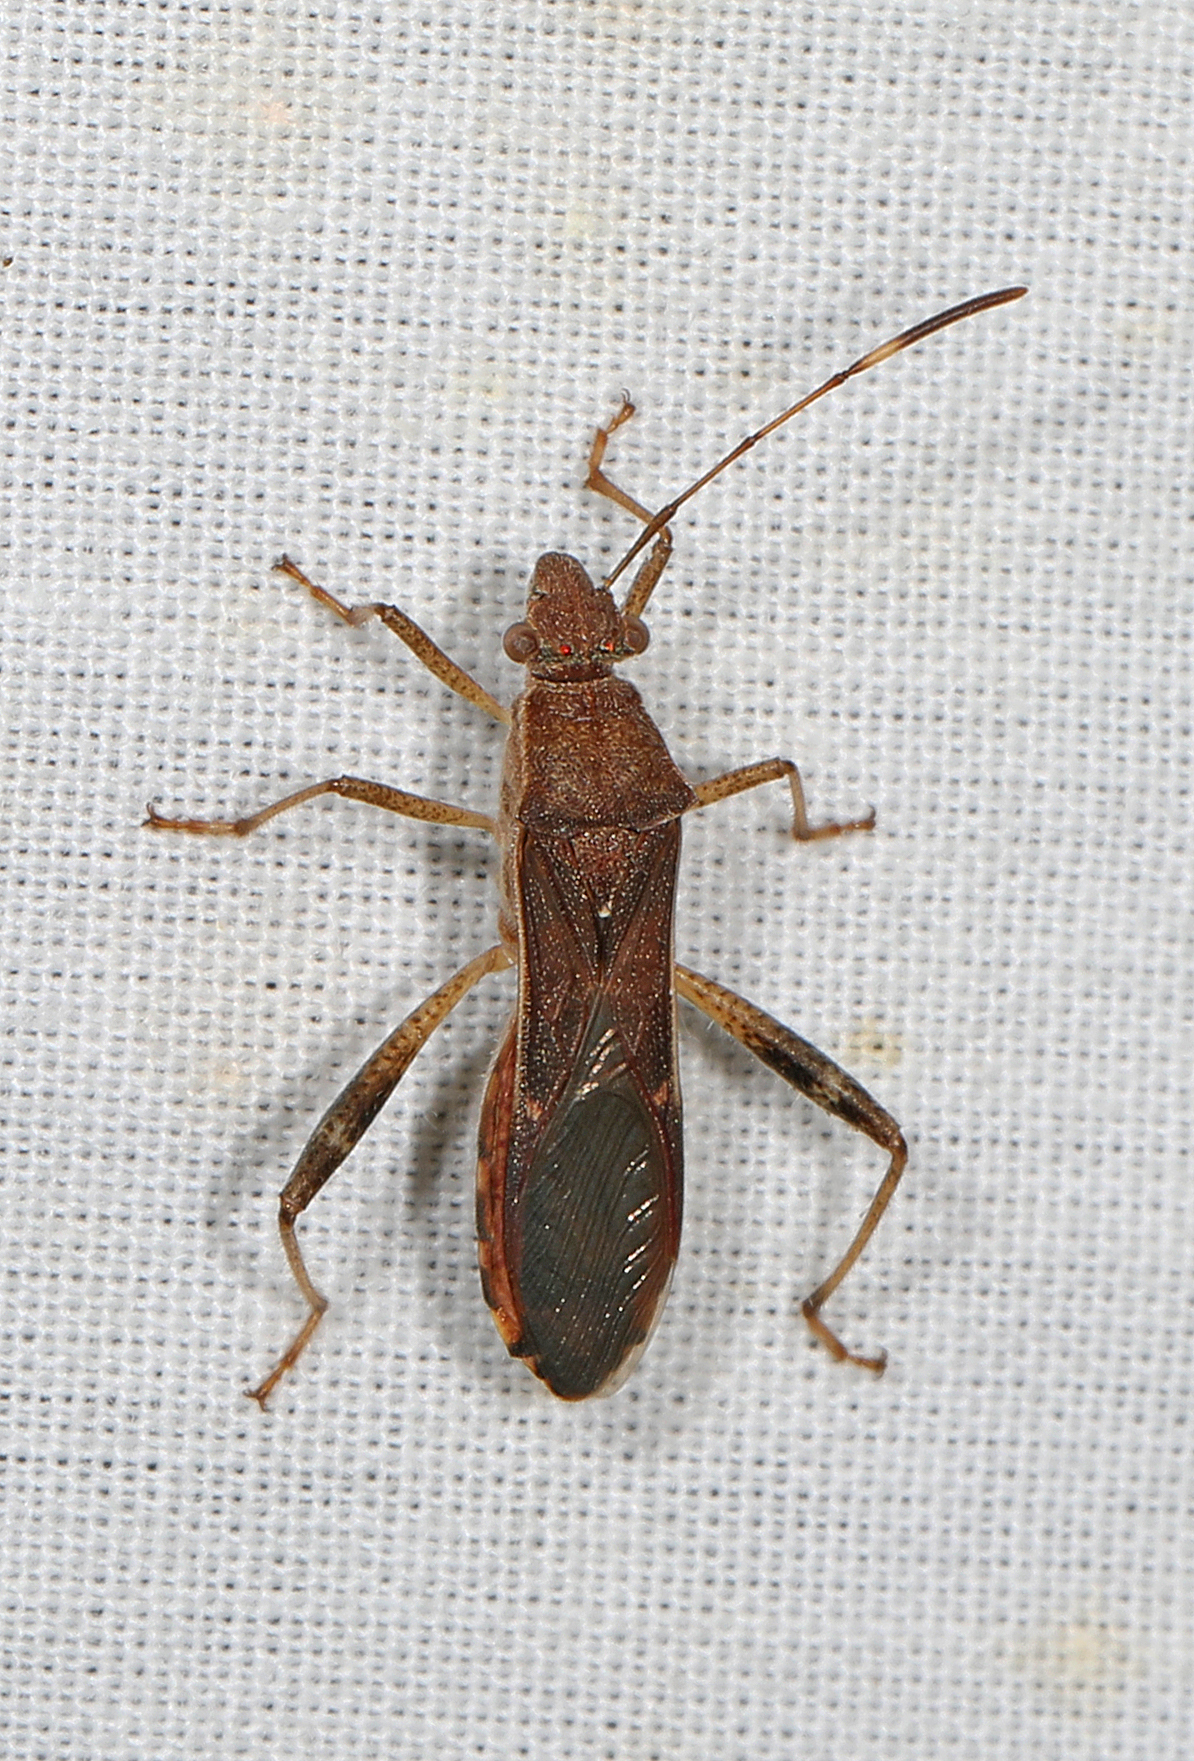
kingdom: Animalia
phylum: Arthropoda
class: Insecta
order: Hemiptera
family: Alydidae
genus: Burtinus
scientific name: Burtinus notatipennis
